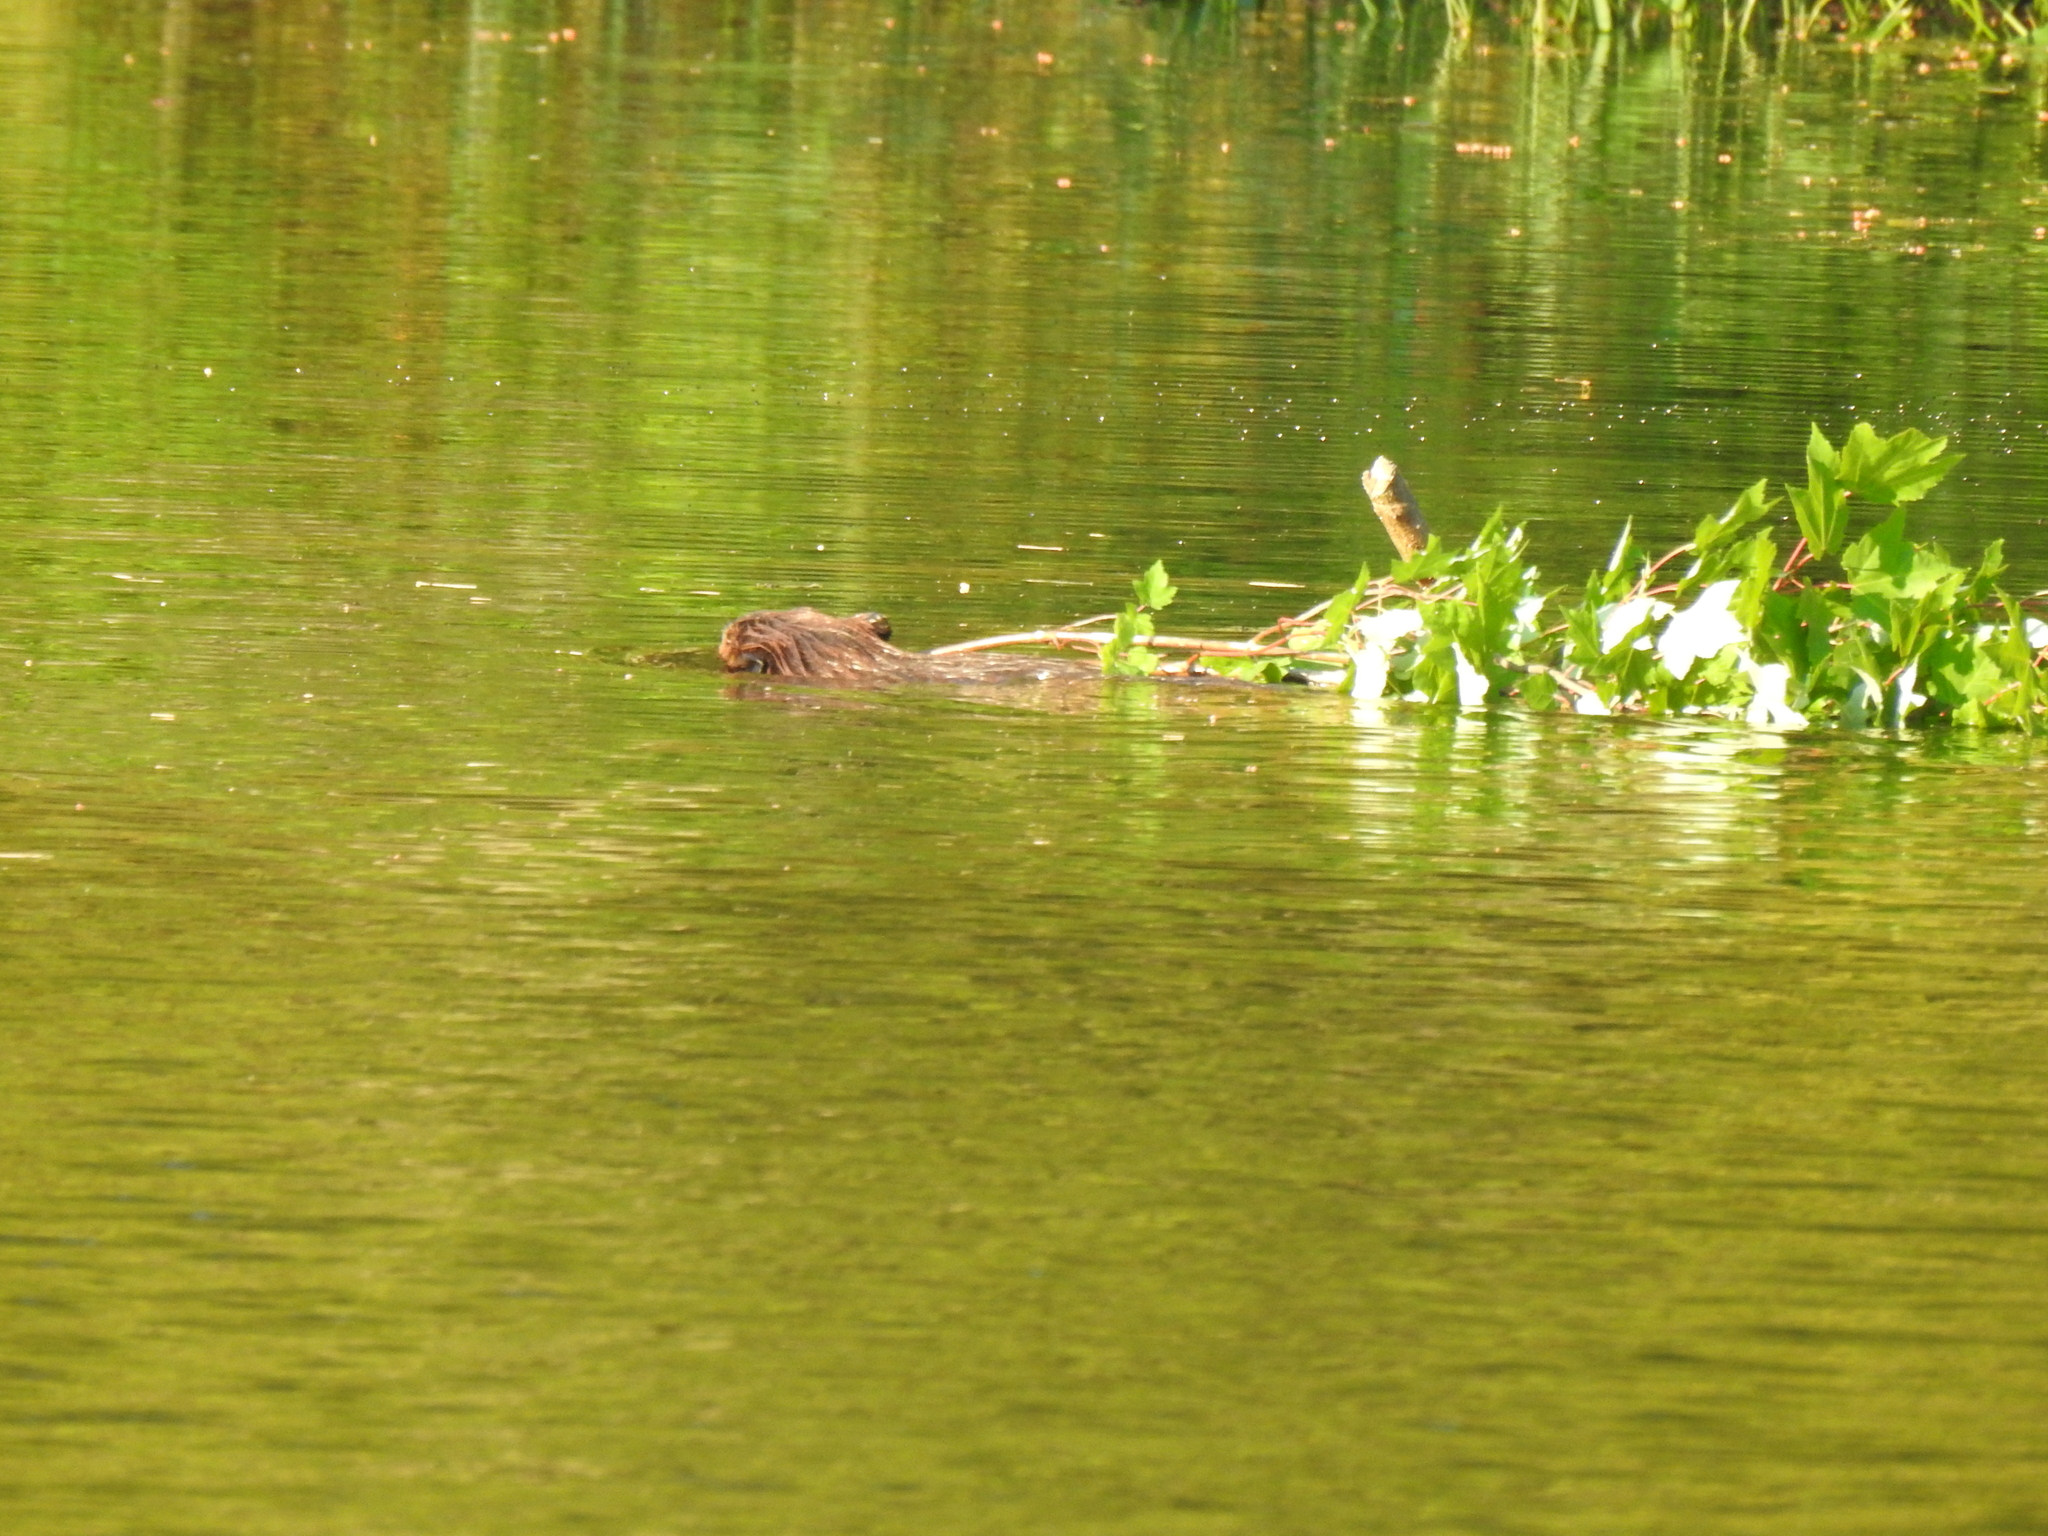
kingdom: Animalia
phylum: Chordata
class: Mammalia
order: Rodentia
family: Castoridae
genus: Castor
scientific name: Castor canadensis
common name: American beaver
